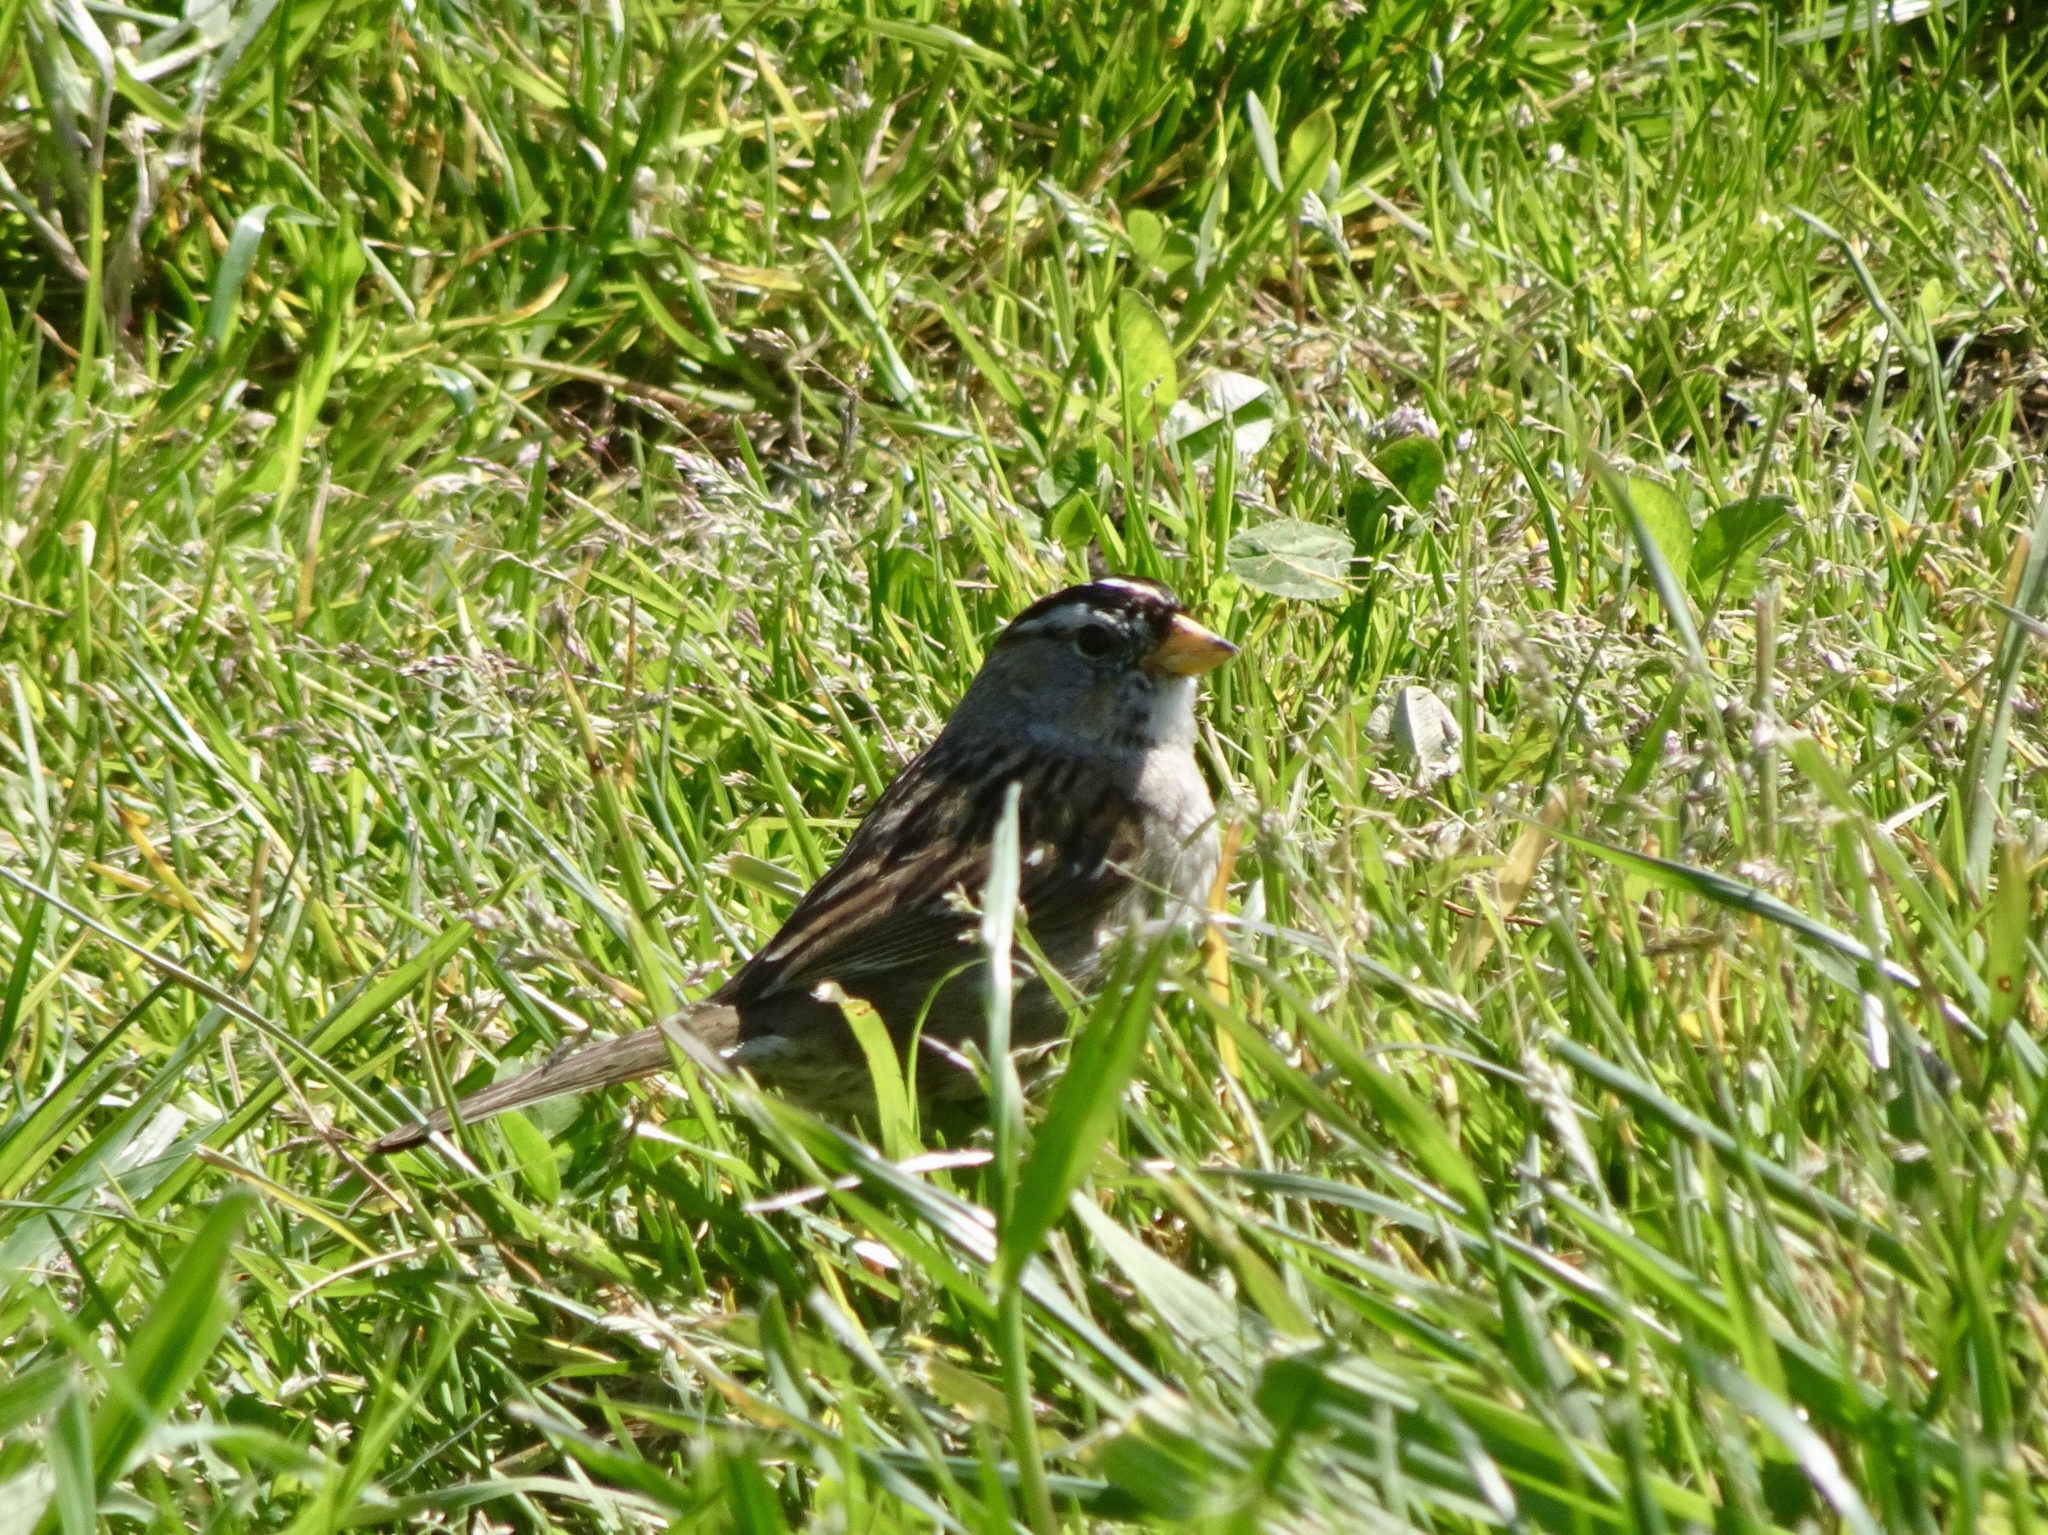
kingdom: Animalia
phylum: Chordata
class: Aves
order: Passeriformes
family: Passerellidae
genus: Zonotrichia
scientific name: Zonotrichia leucophrys
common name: White-crowned sparrow
